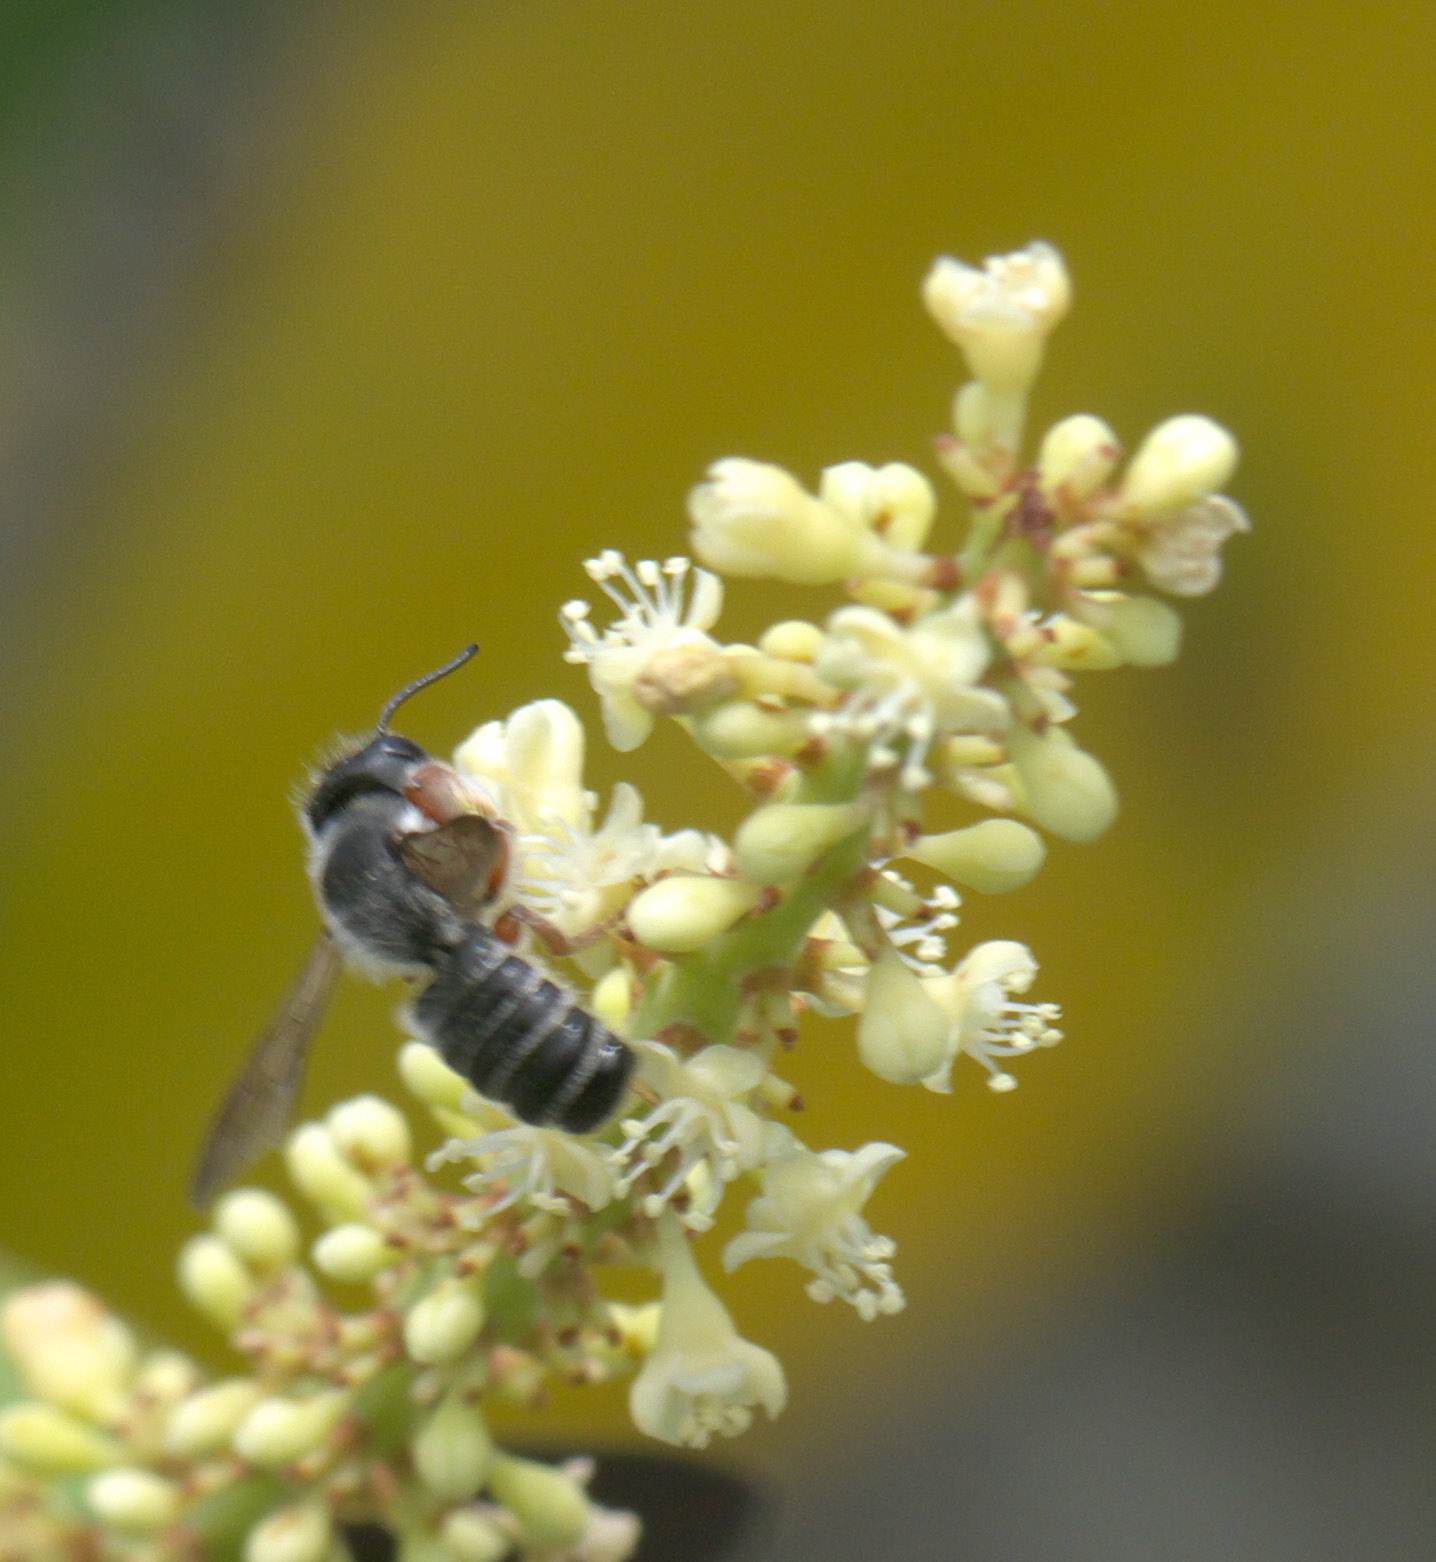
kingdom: Animalia
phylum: Arthropoda
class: Insecta
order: Hymenoptera
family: Megachilidae
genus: Megachile
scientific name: Megachile inimica
